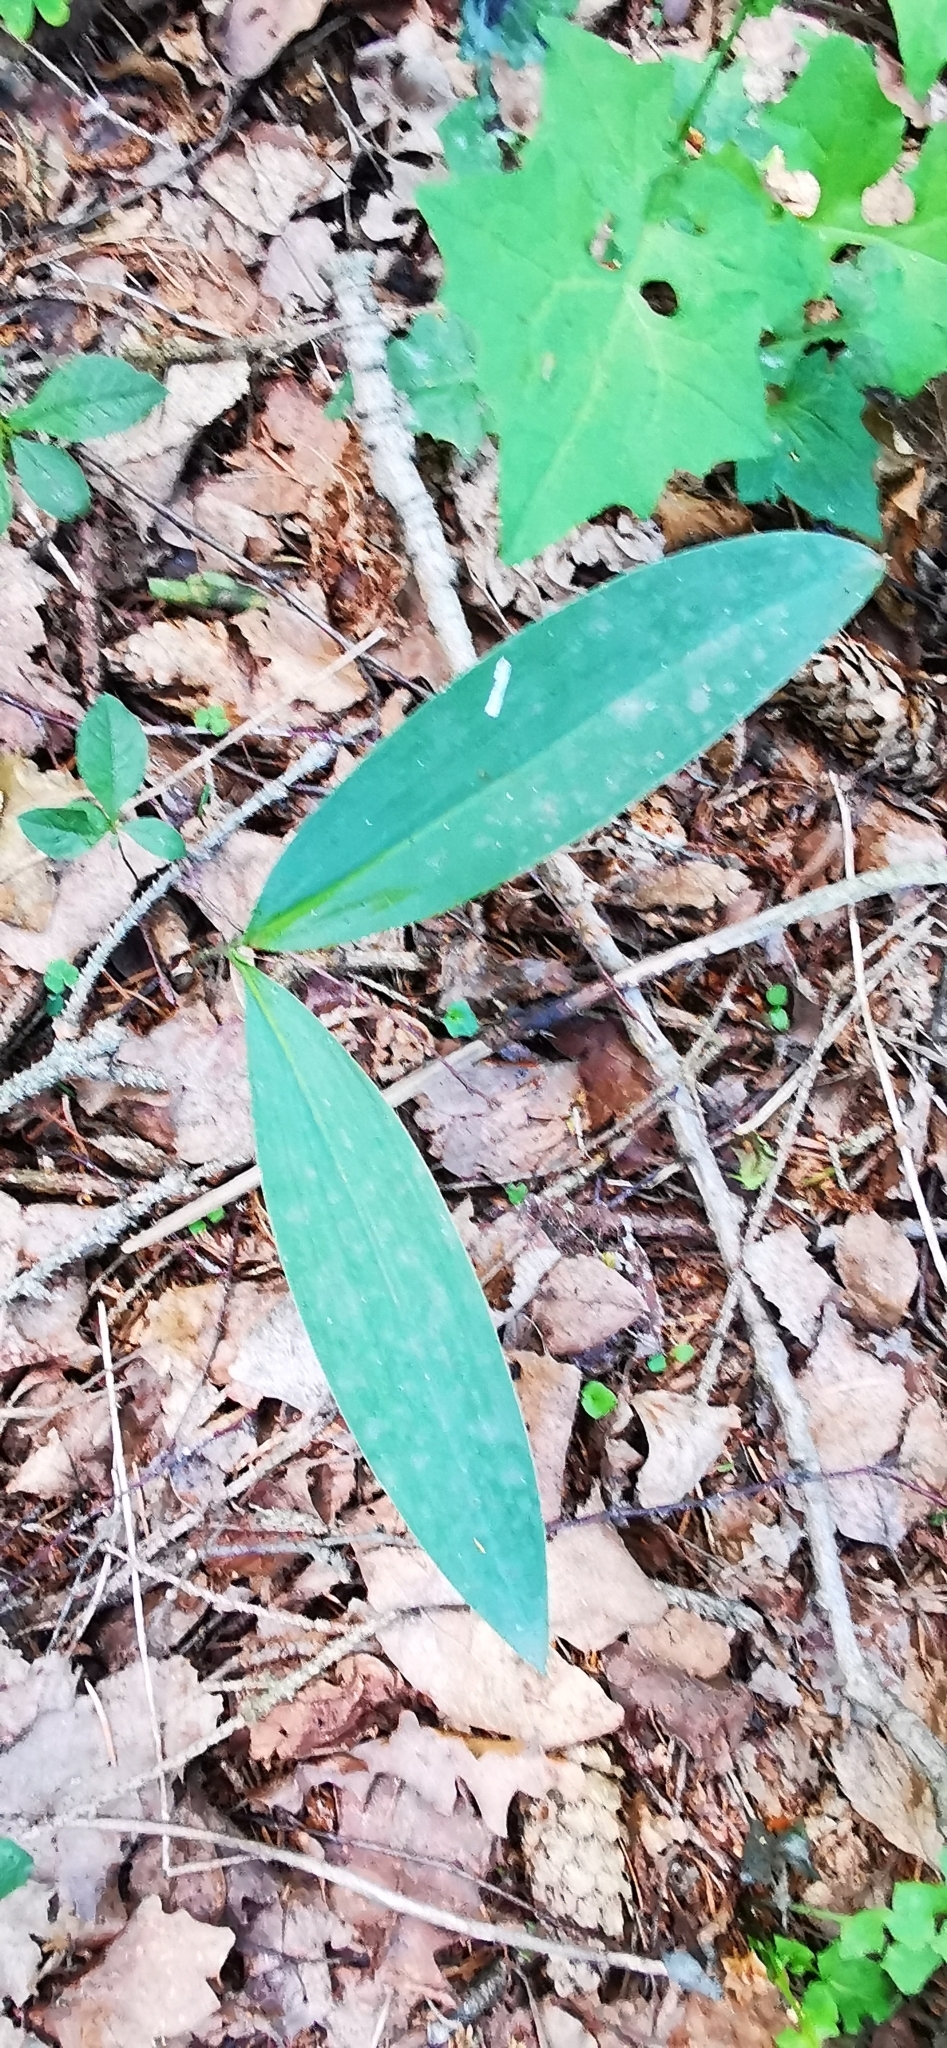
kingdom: Plantae
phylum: Tracheophyta
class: Liliopsida
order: Asparagales
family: Asparagaceae
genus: Convallaria
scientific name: Convallaria majalis
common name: Lily-of-the-valley
